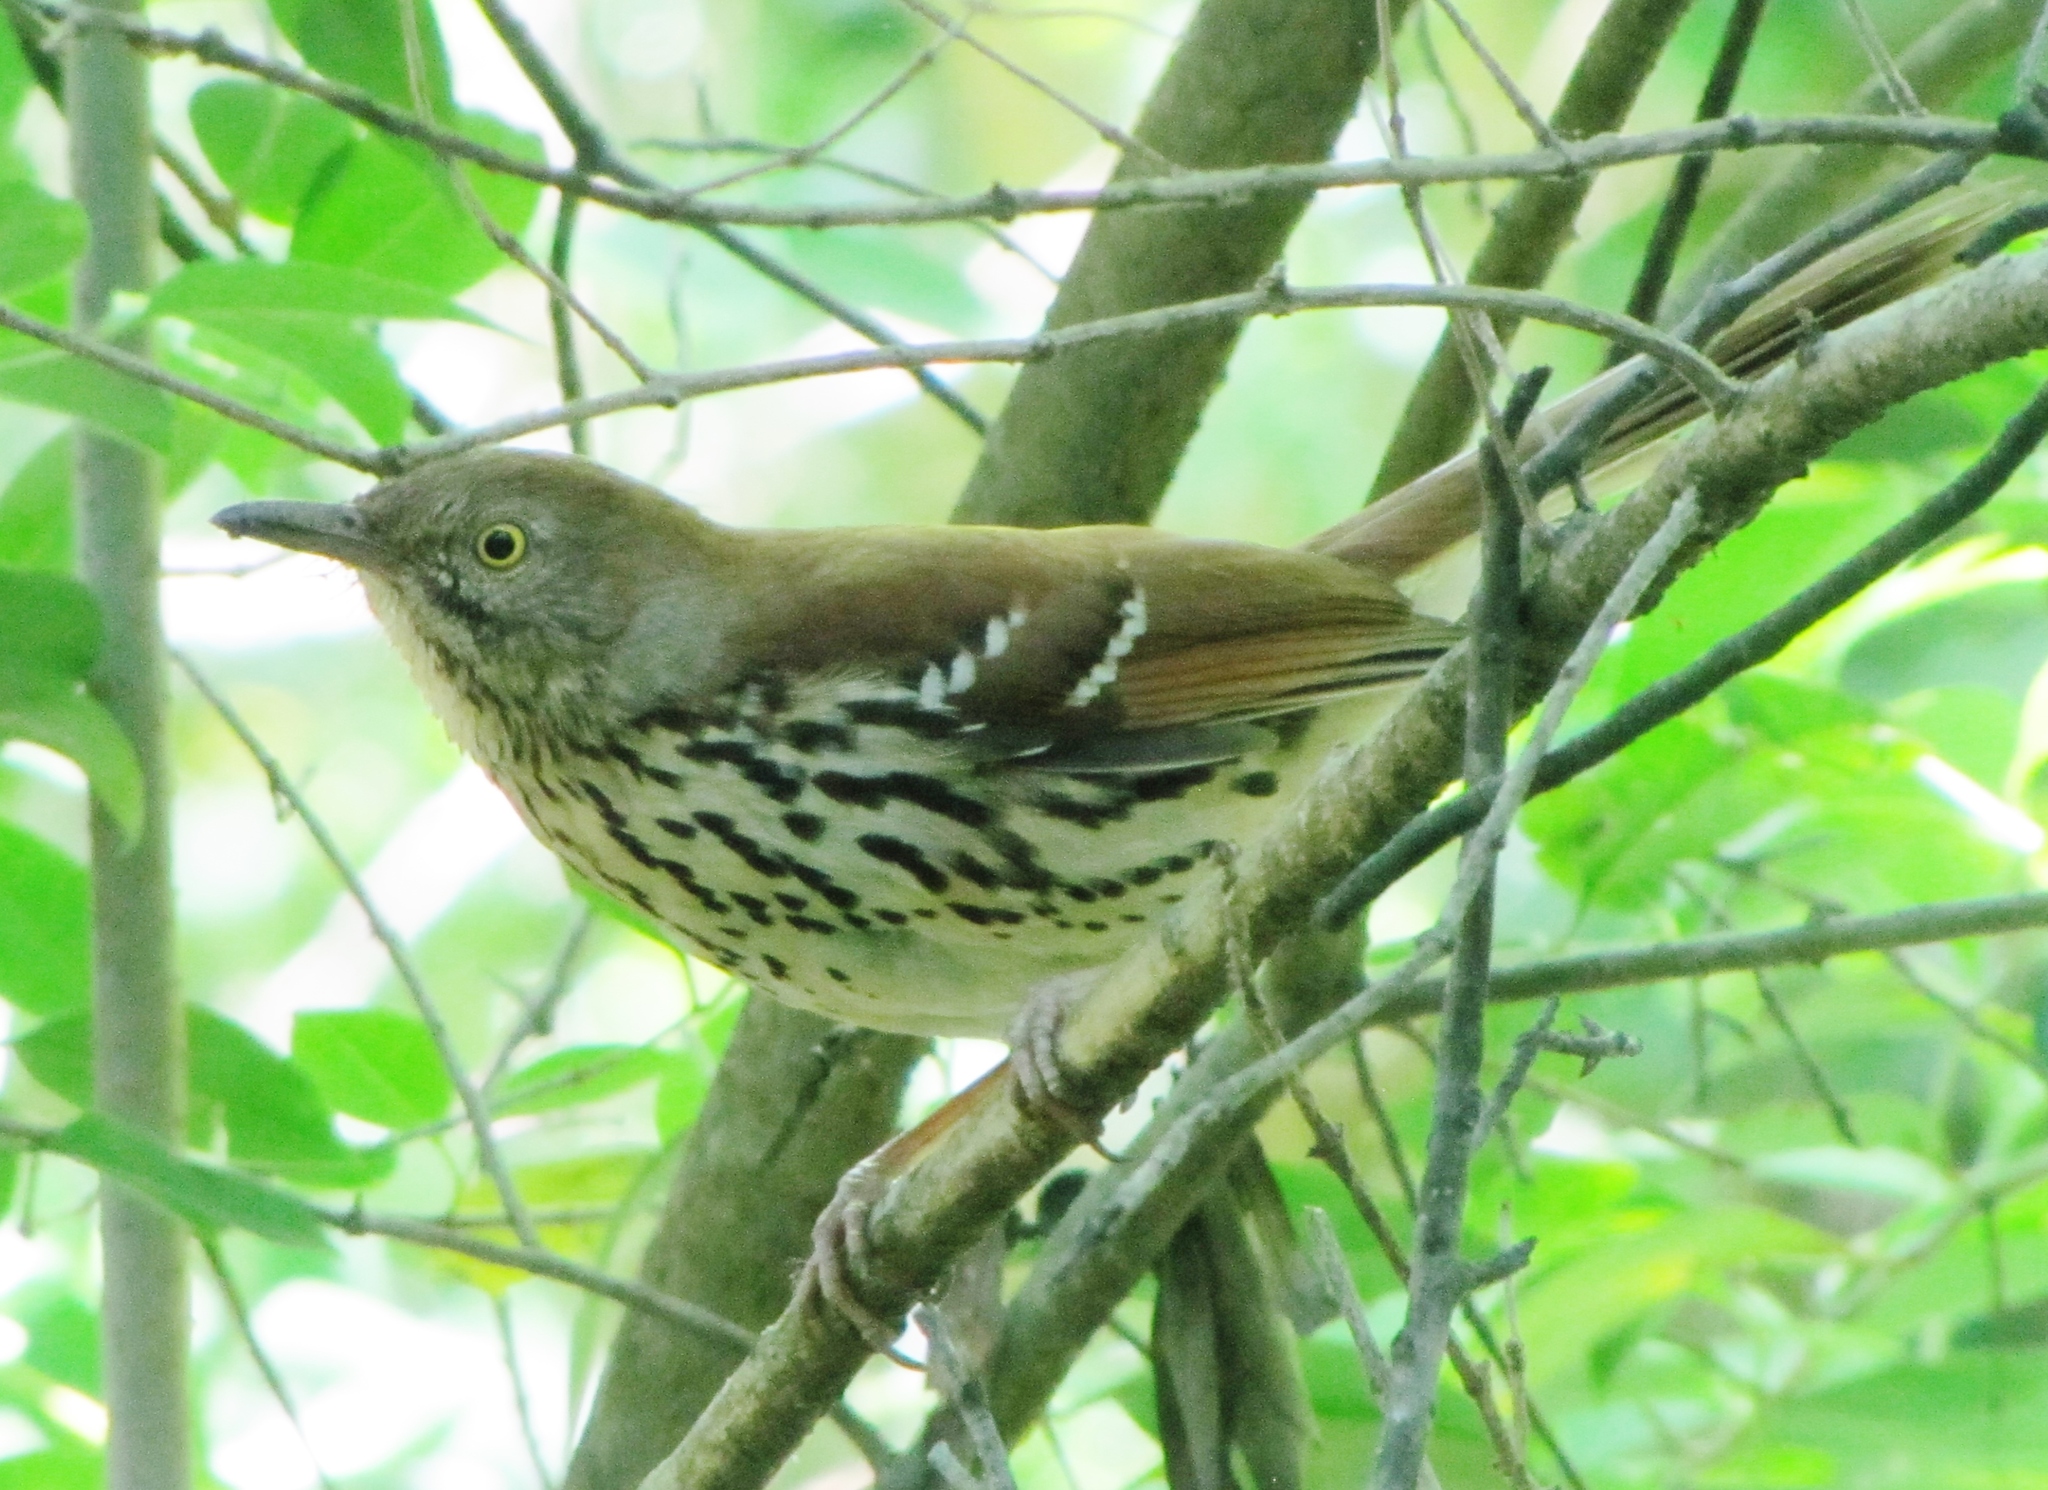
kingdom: Animalia
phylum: Chordata
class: Aves
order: Passeriformes
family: Mimidae
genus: Toxostoma
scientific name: Toxostoma rufum
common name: Brown thrasher
